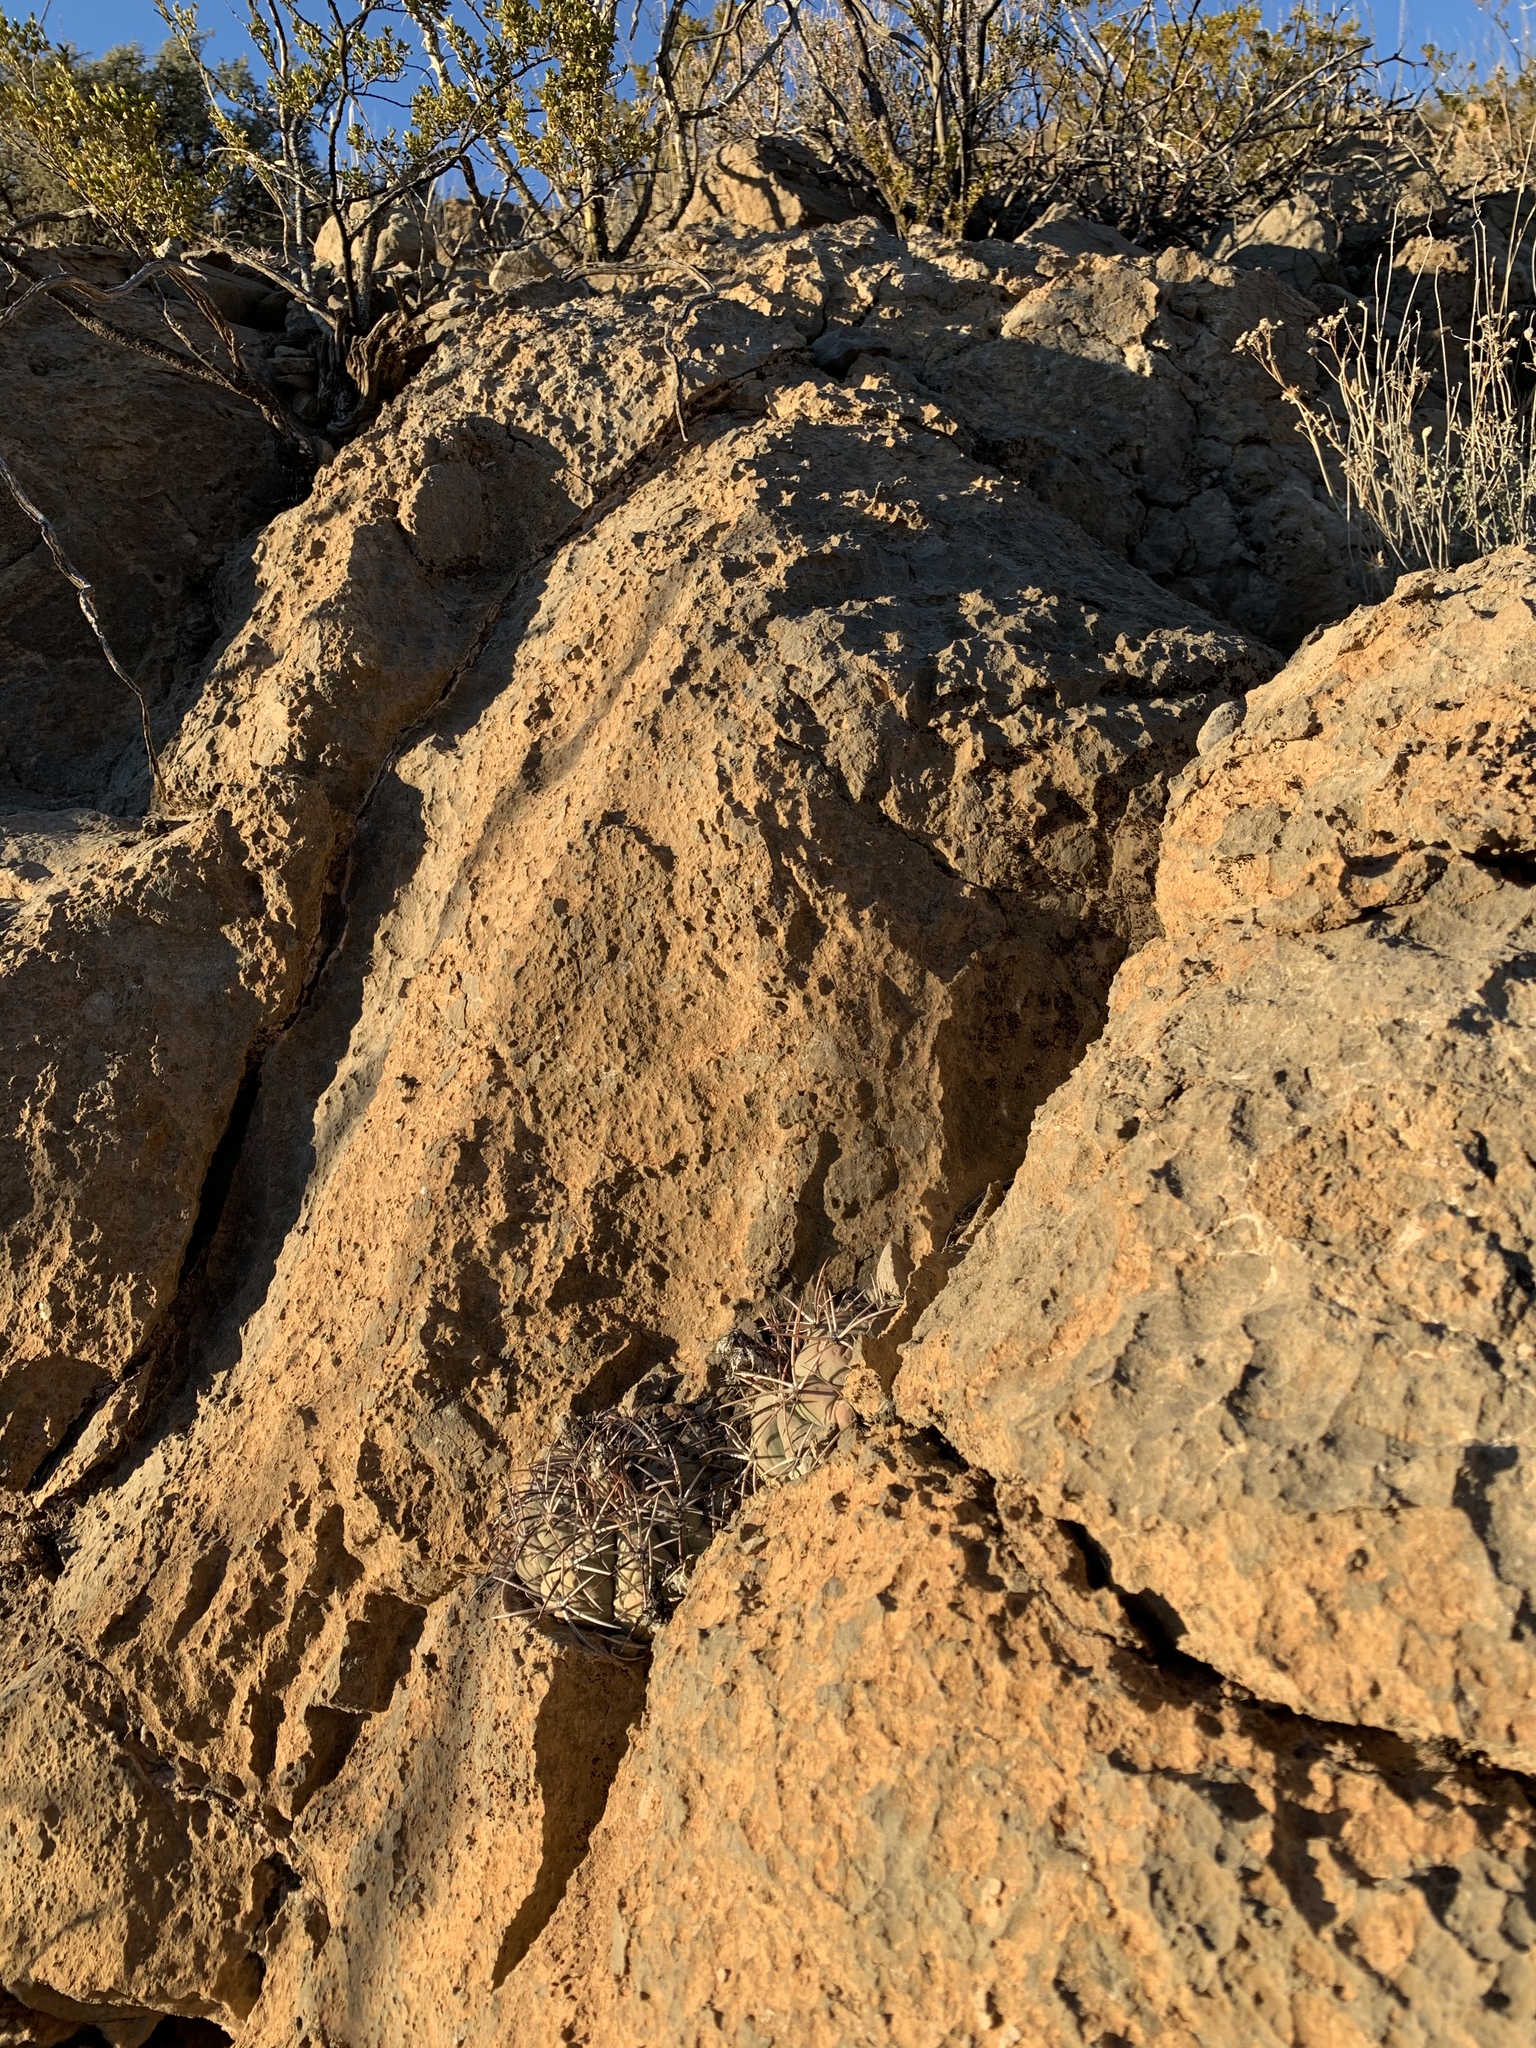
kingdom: Plantae
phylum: Tracheophyta
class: Magnoliopsida
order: Caryophyllales
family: Cactaceae
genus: Echinocactus
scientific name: Echinocactus horizonthalonius
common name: Devilshead
